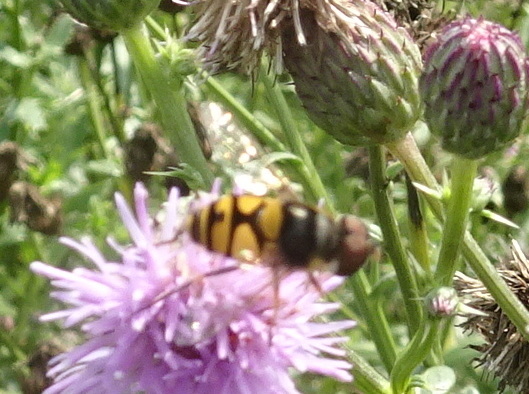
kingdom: Animalia
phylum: Arthropoda
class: Insecta
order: Diptera
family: Syrphidae
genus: Eristalis
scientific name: Eristalis transversa
